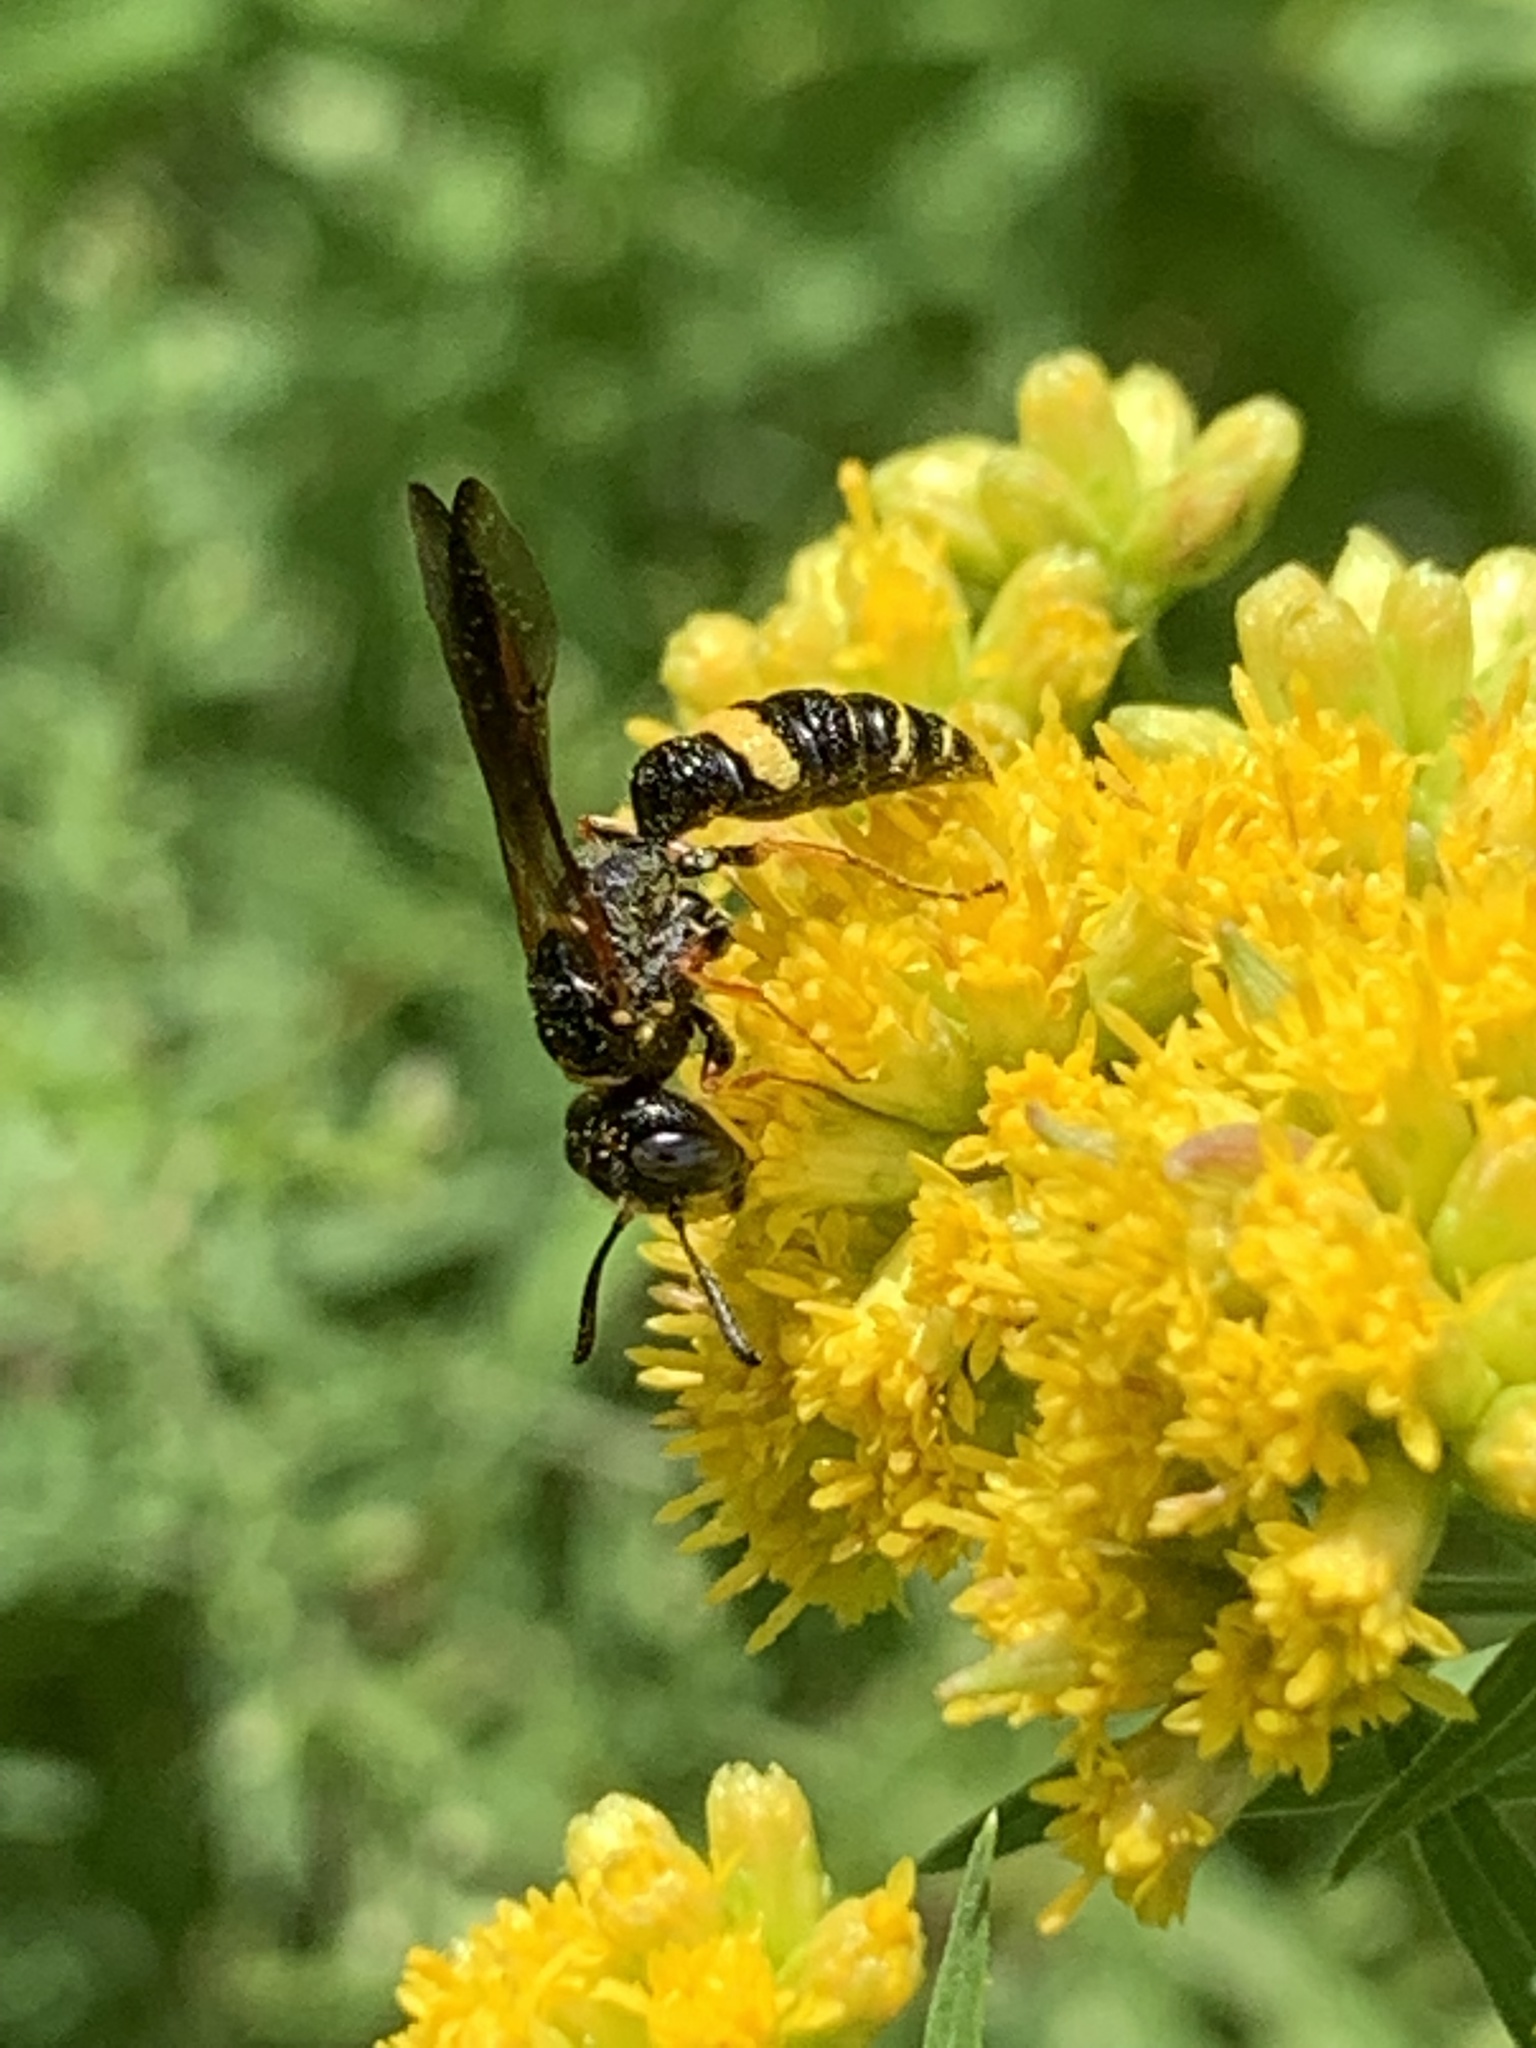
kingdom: Animalia
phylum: Arthropoda
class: Insecta
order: Hymenoptera
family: Crabronidae
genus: Philanthus
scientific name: Philanthus gibbosus
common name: Humped beewolf
